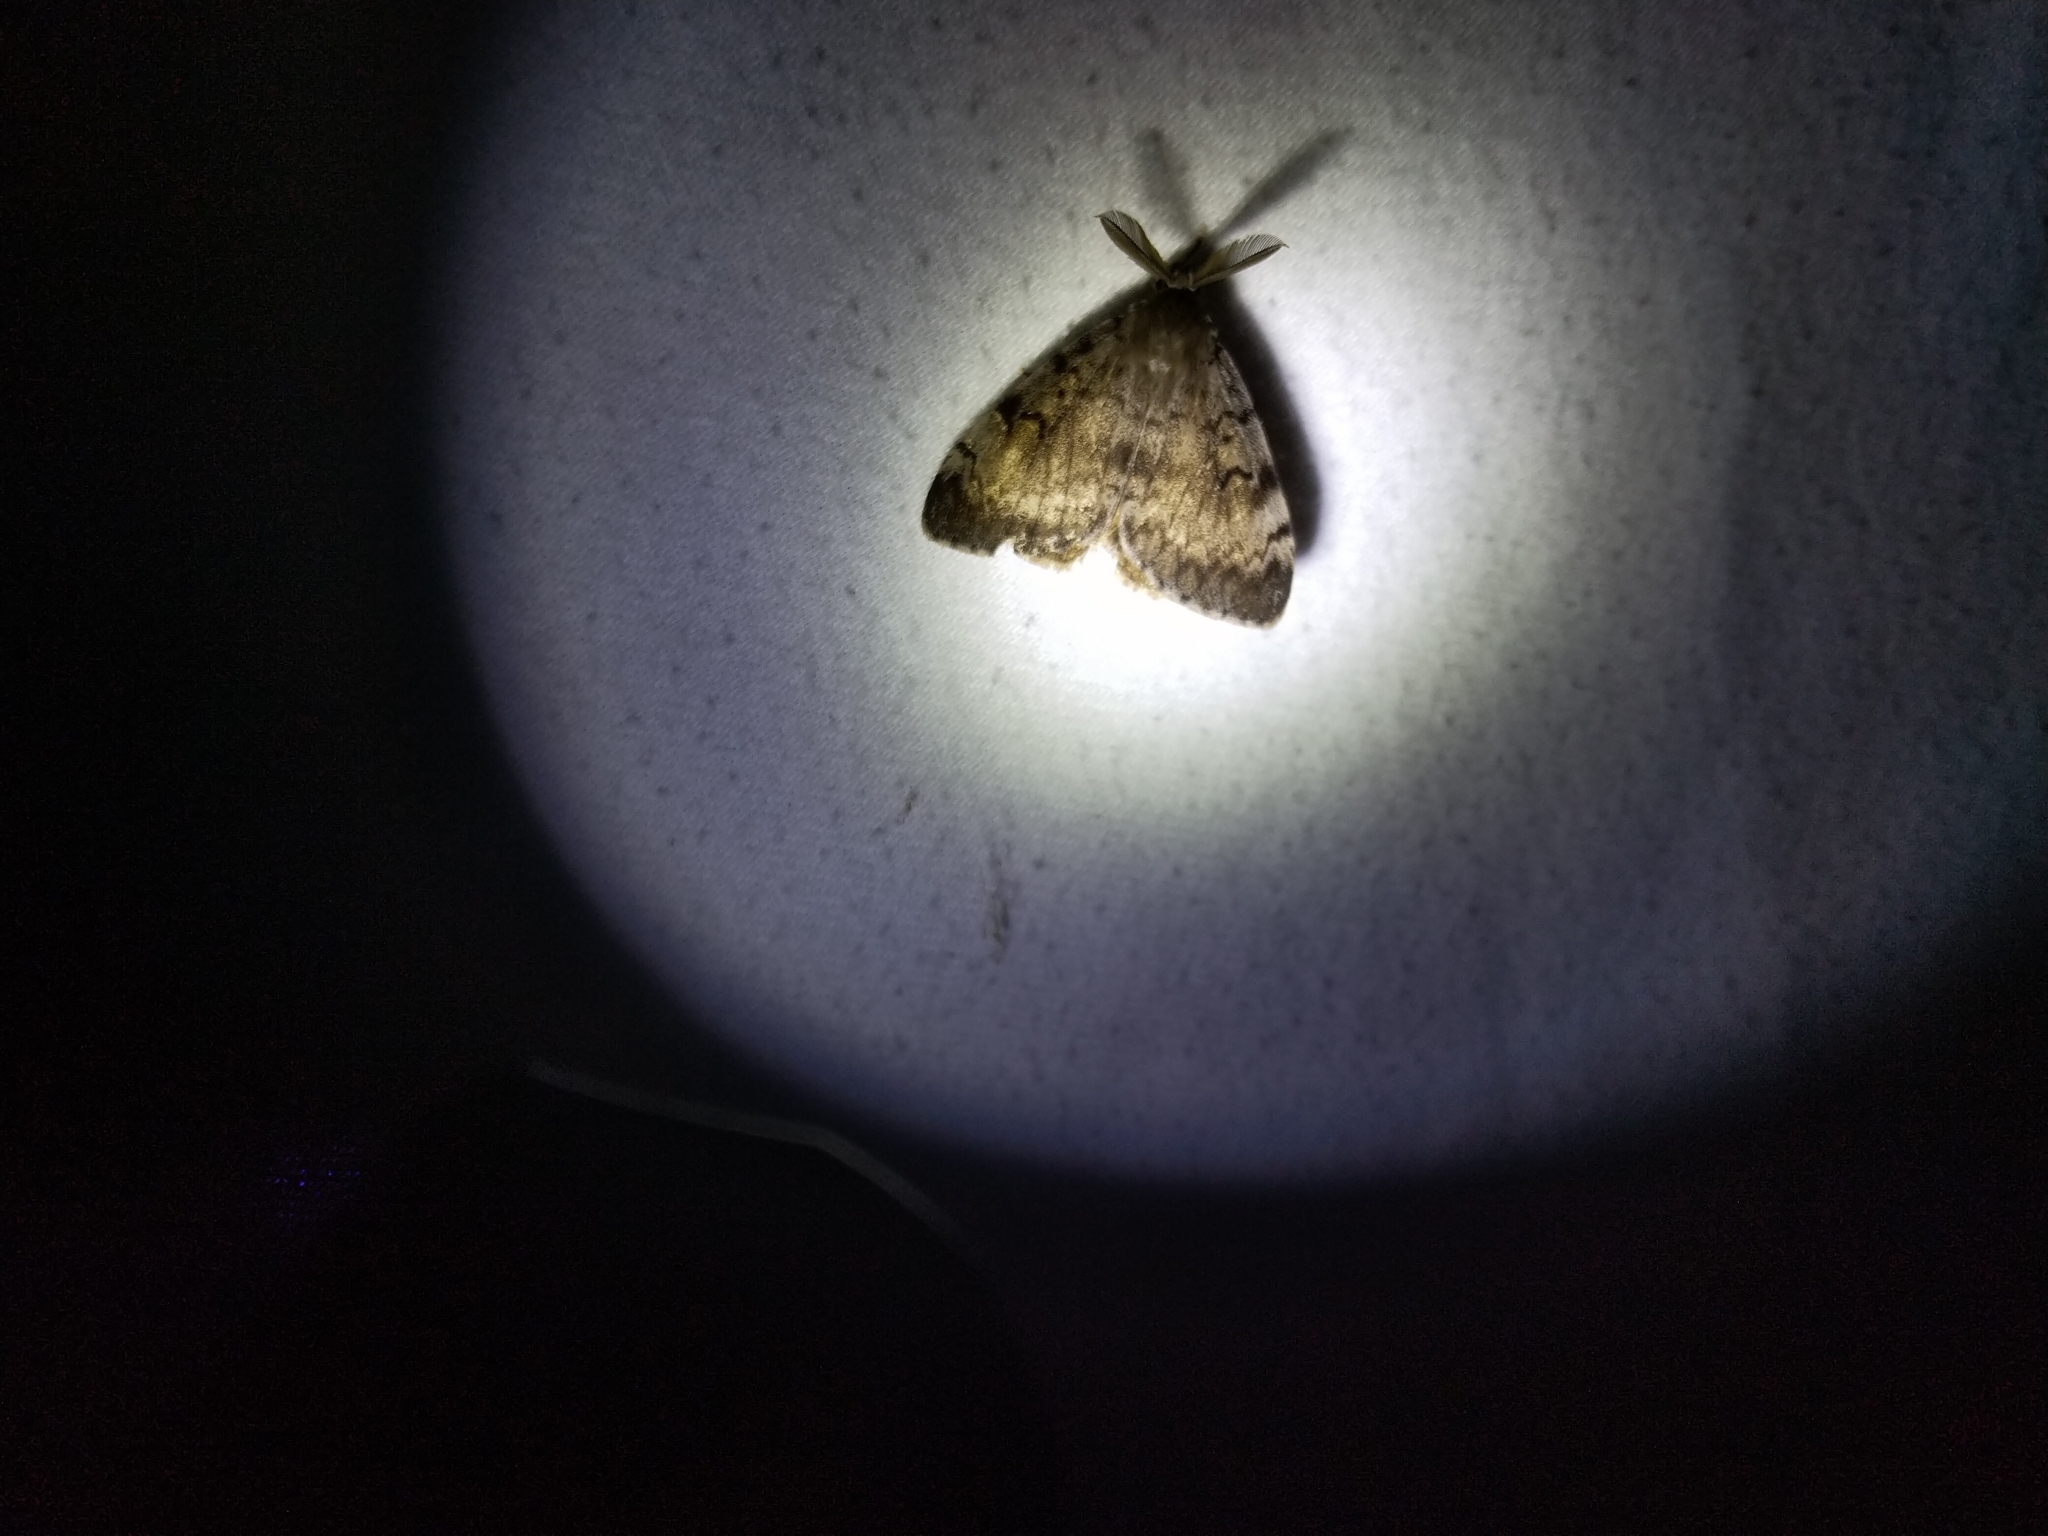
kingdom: Animalia
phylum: Arthropoda
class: Insecta
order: Lepidoptera
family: Erebidae
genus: Lymantria
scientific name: Lymantria dispar
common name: Gypsy moth
